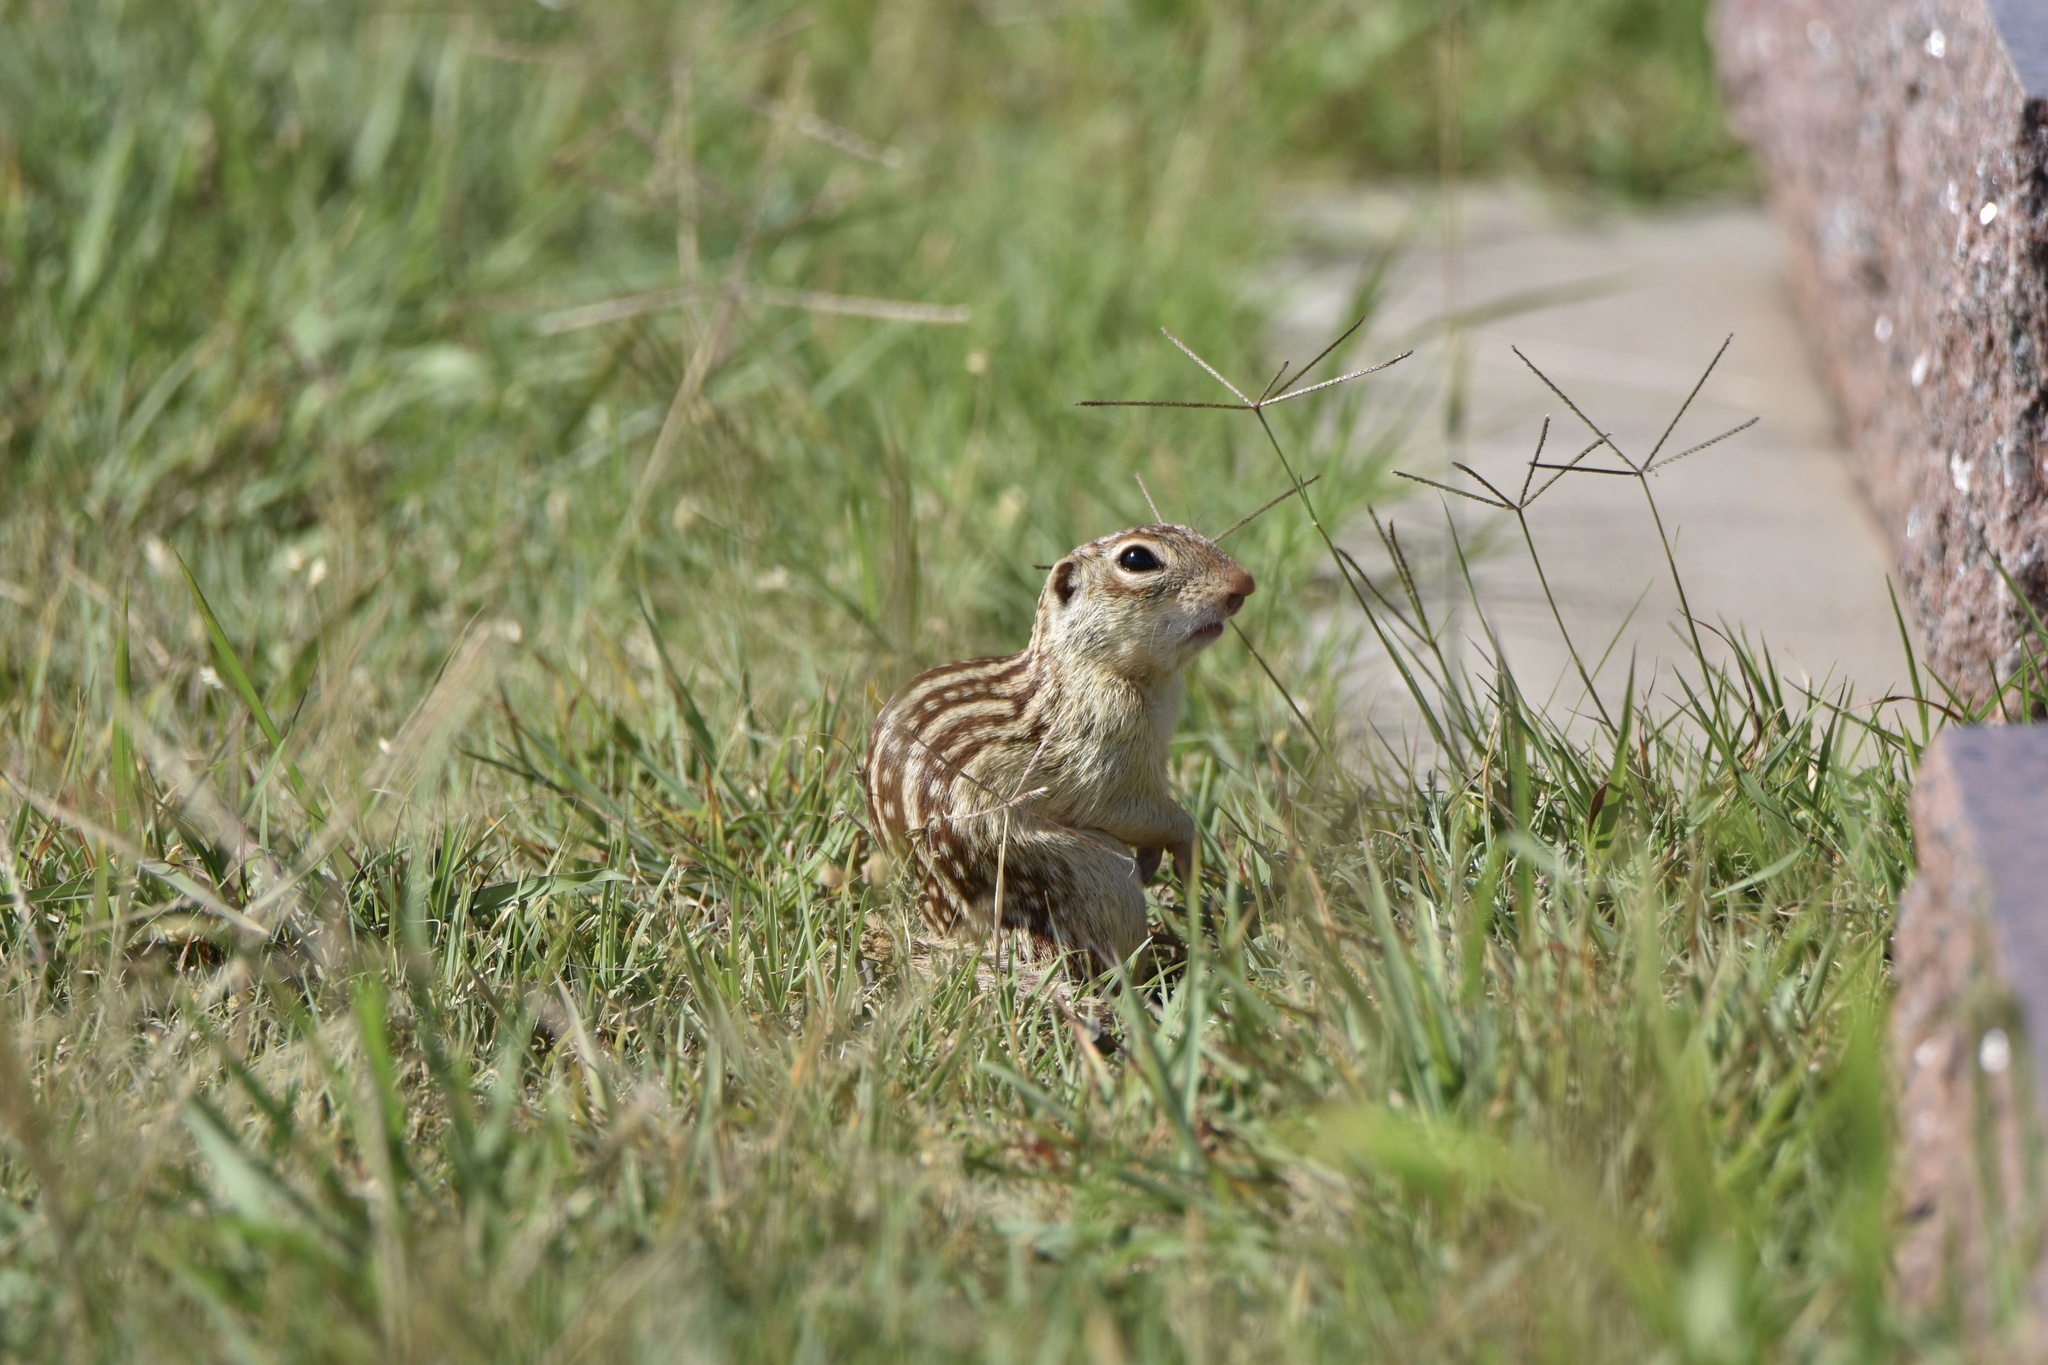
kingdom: Animalia
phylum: Chordata
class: Mammalia
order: Rodentia
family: Sciuridae
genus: Ictidomys
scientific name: Ictidomys tridecemlineatus
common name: Thirteen-lined ground squirrel
